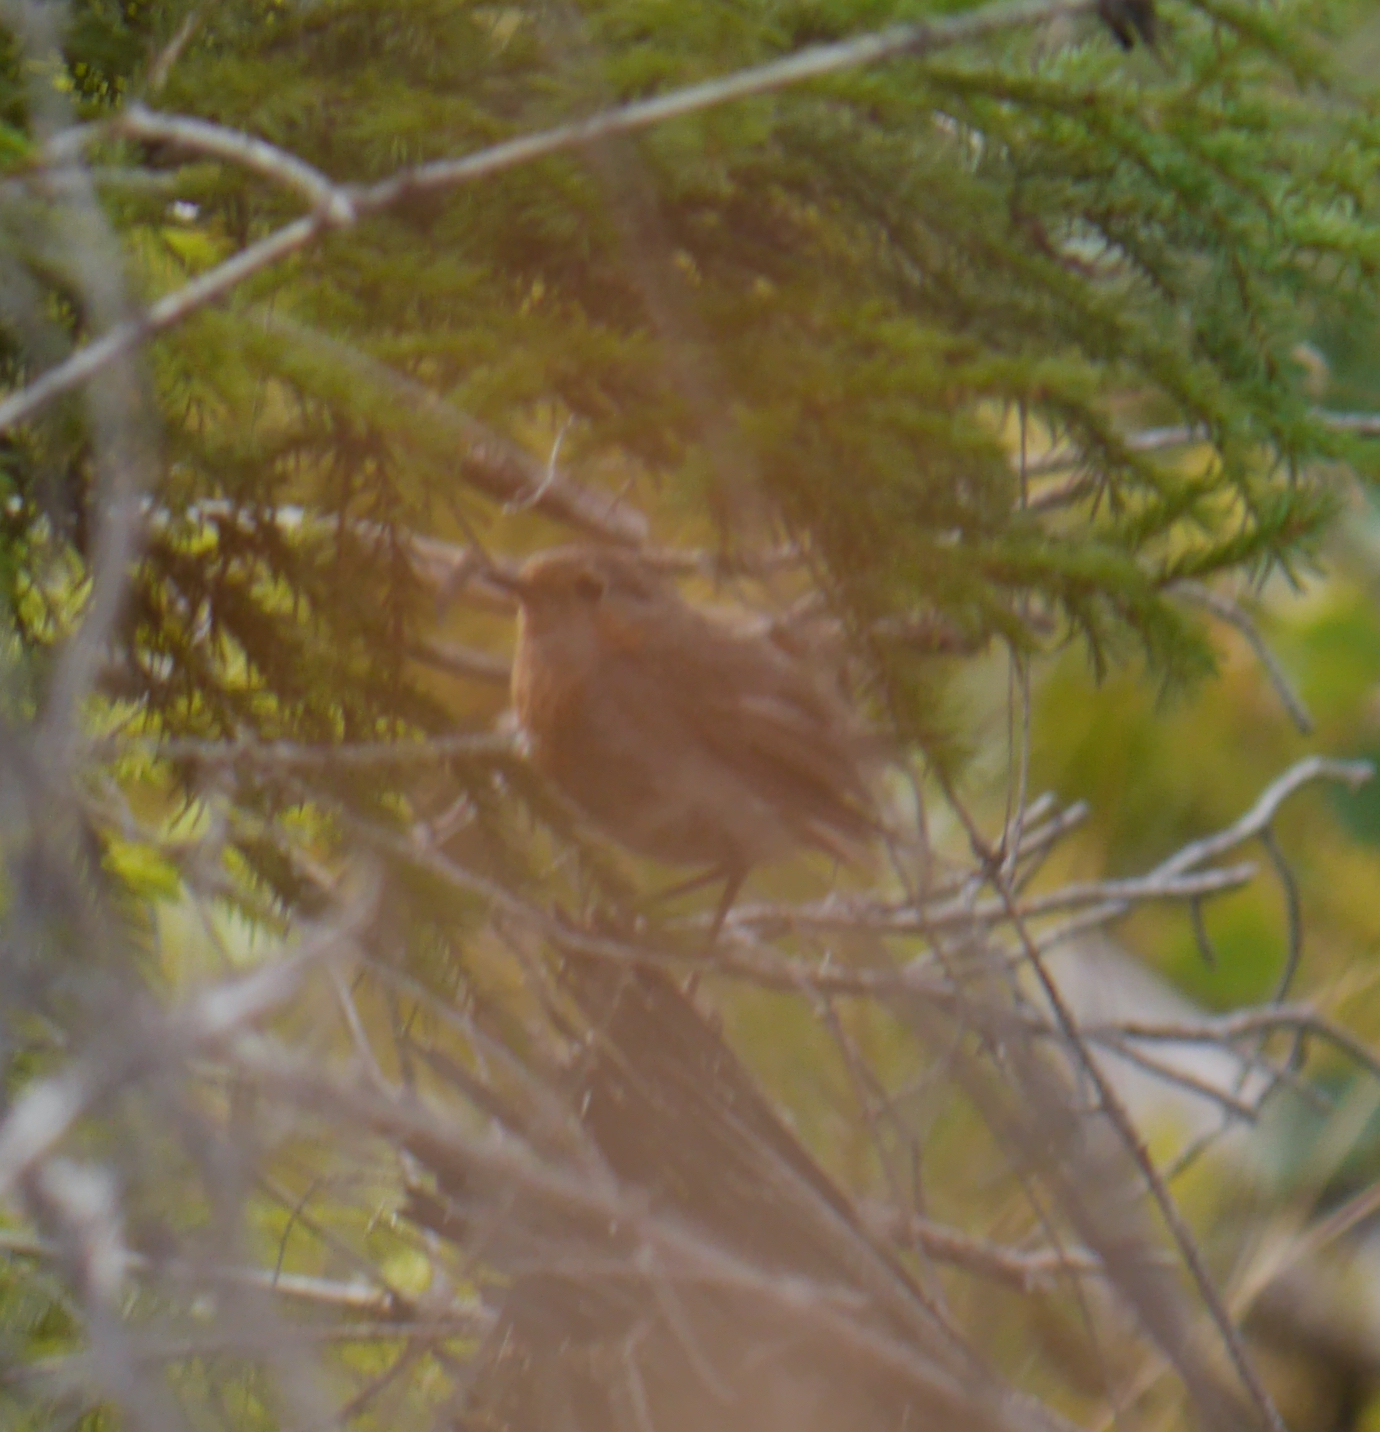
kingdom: Animalia
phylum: Chordata
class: Aves
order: Passeriformes
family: Muscicapidae
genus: Erithacus
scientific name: Erithacus rubecula
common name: European robin
